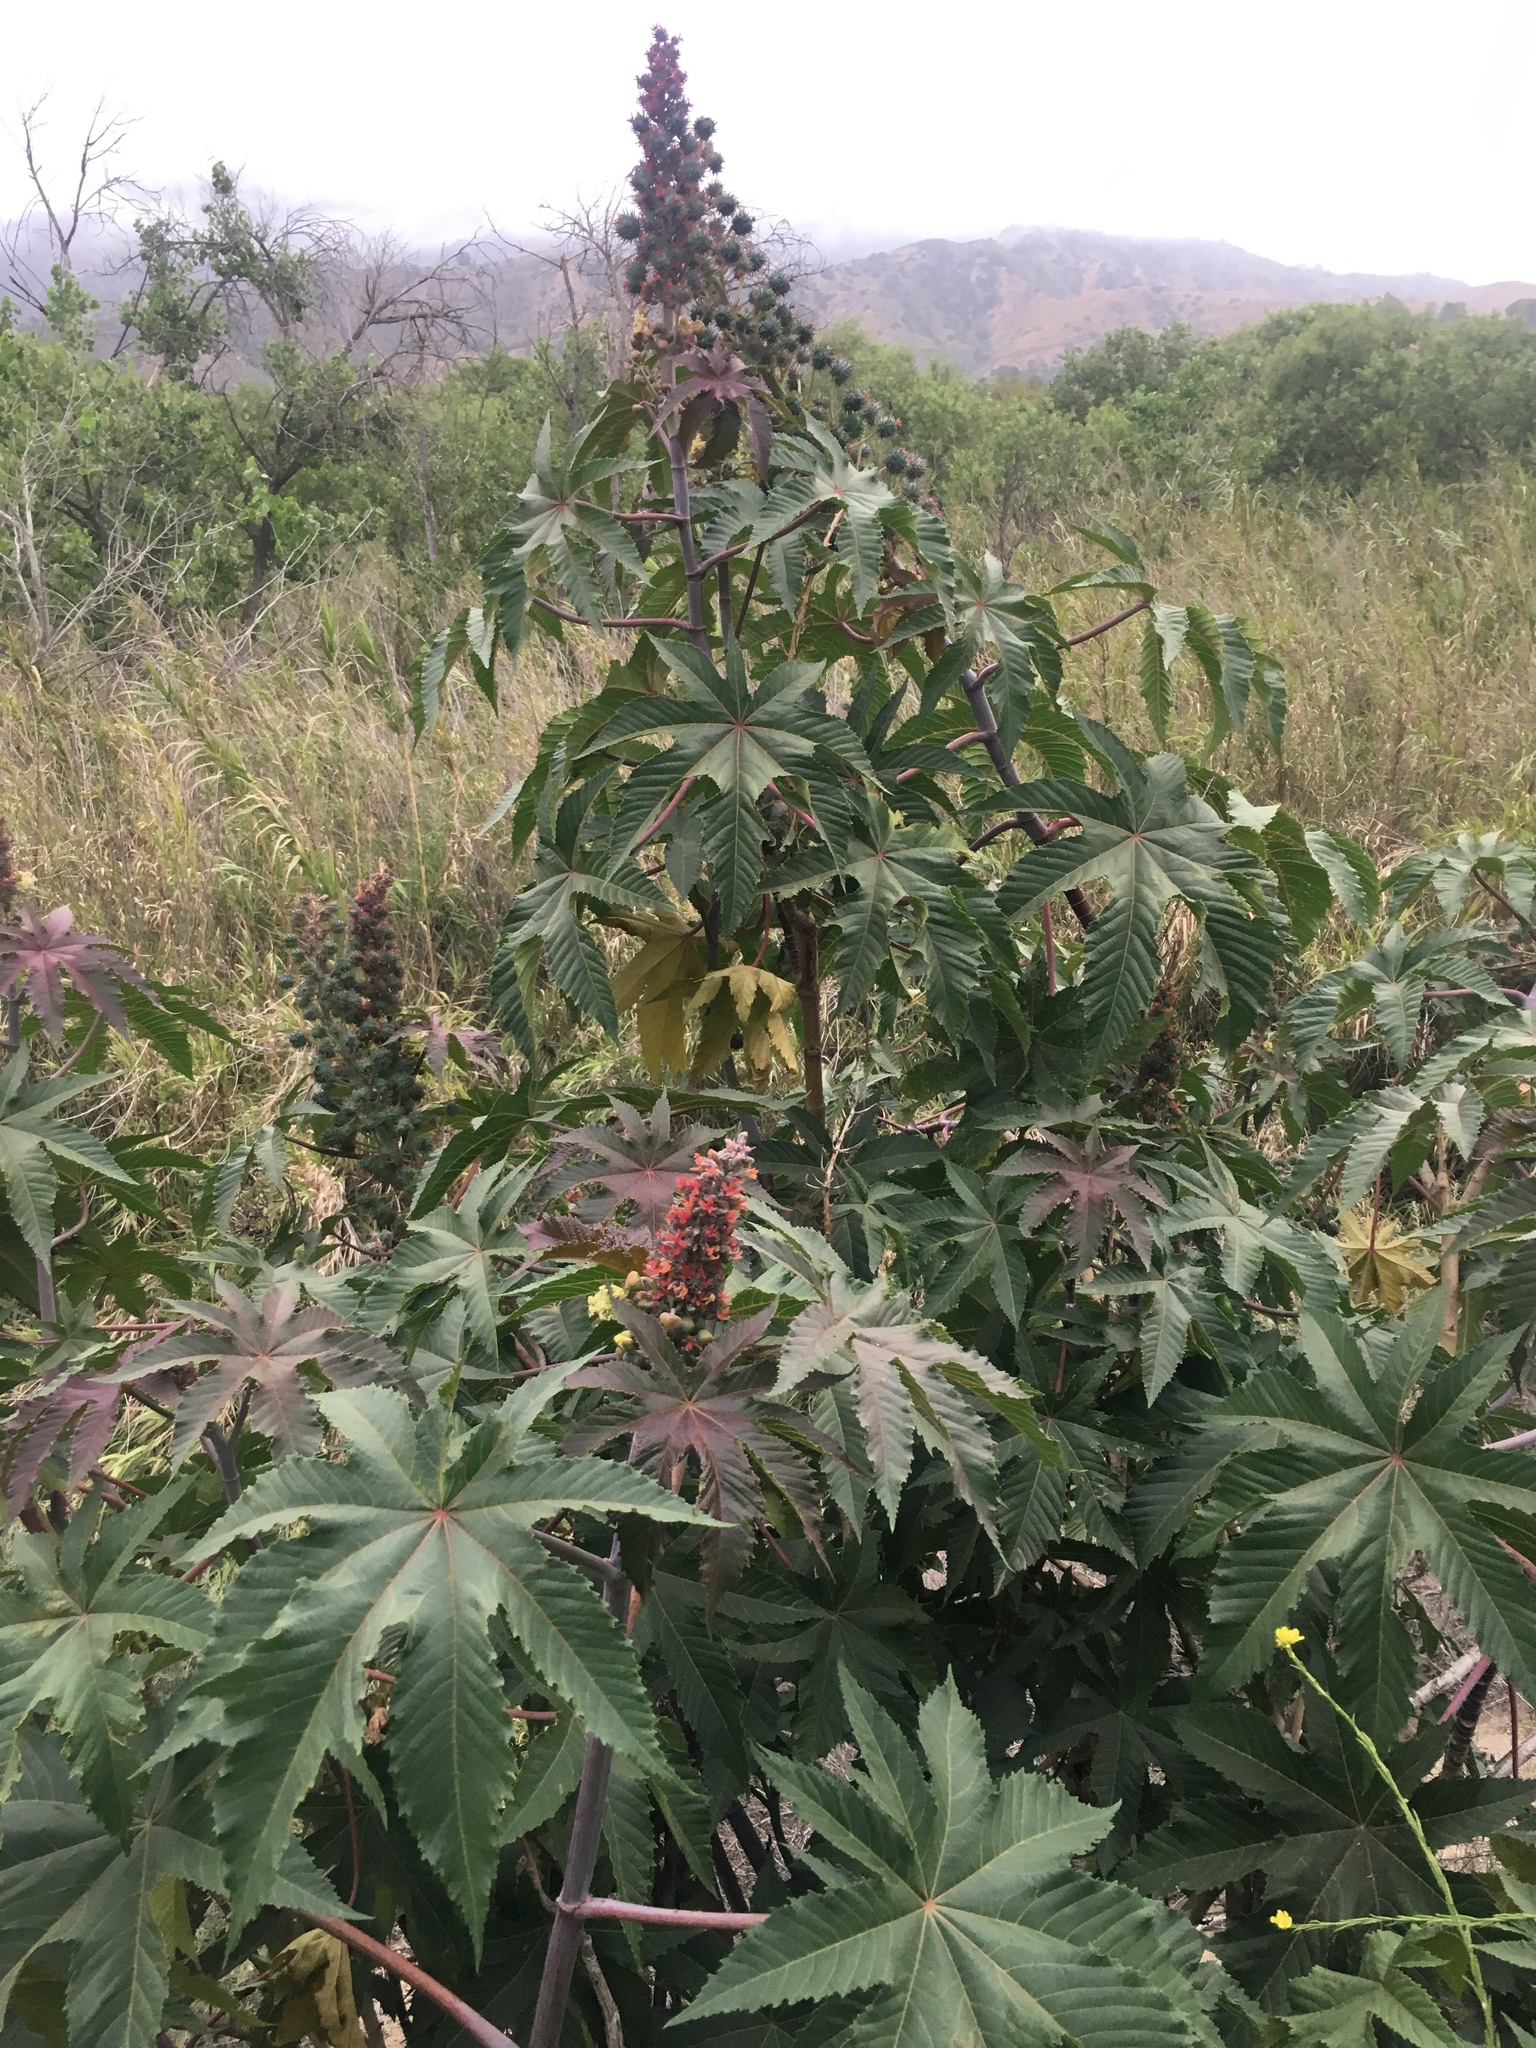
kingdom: Plantae
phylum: Tracheophyta
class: Magnoliopsida
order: Malpighiales
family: Euphorbiaceae
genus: Ricinus
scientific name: Ricinus communis
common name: Castor-oil-plant
